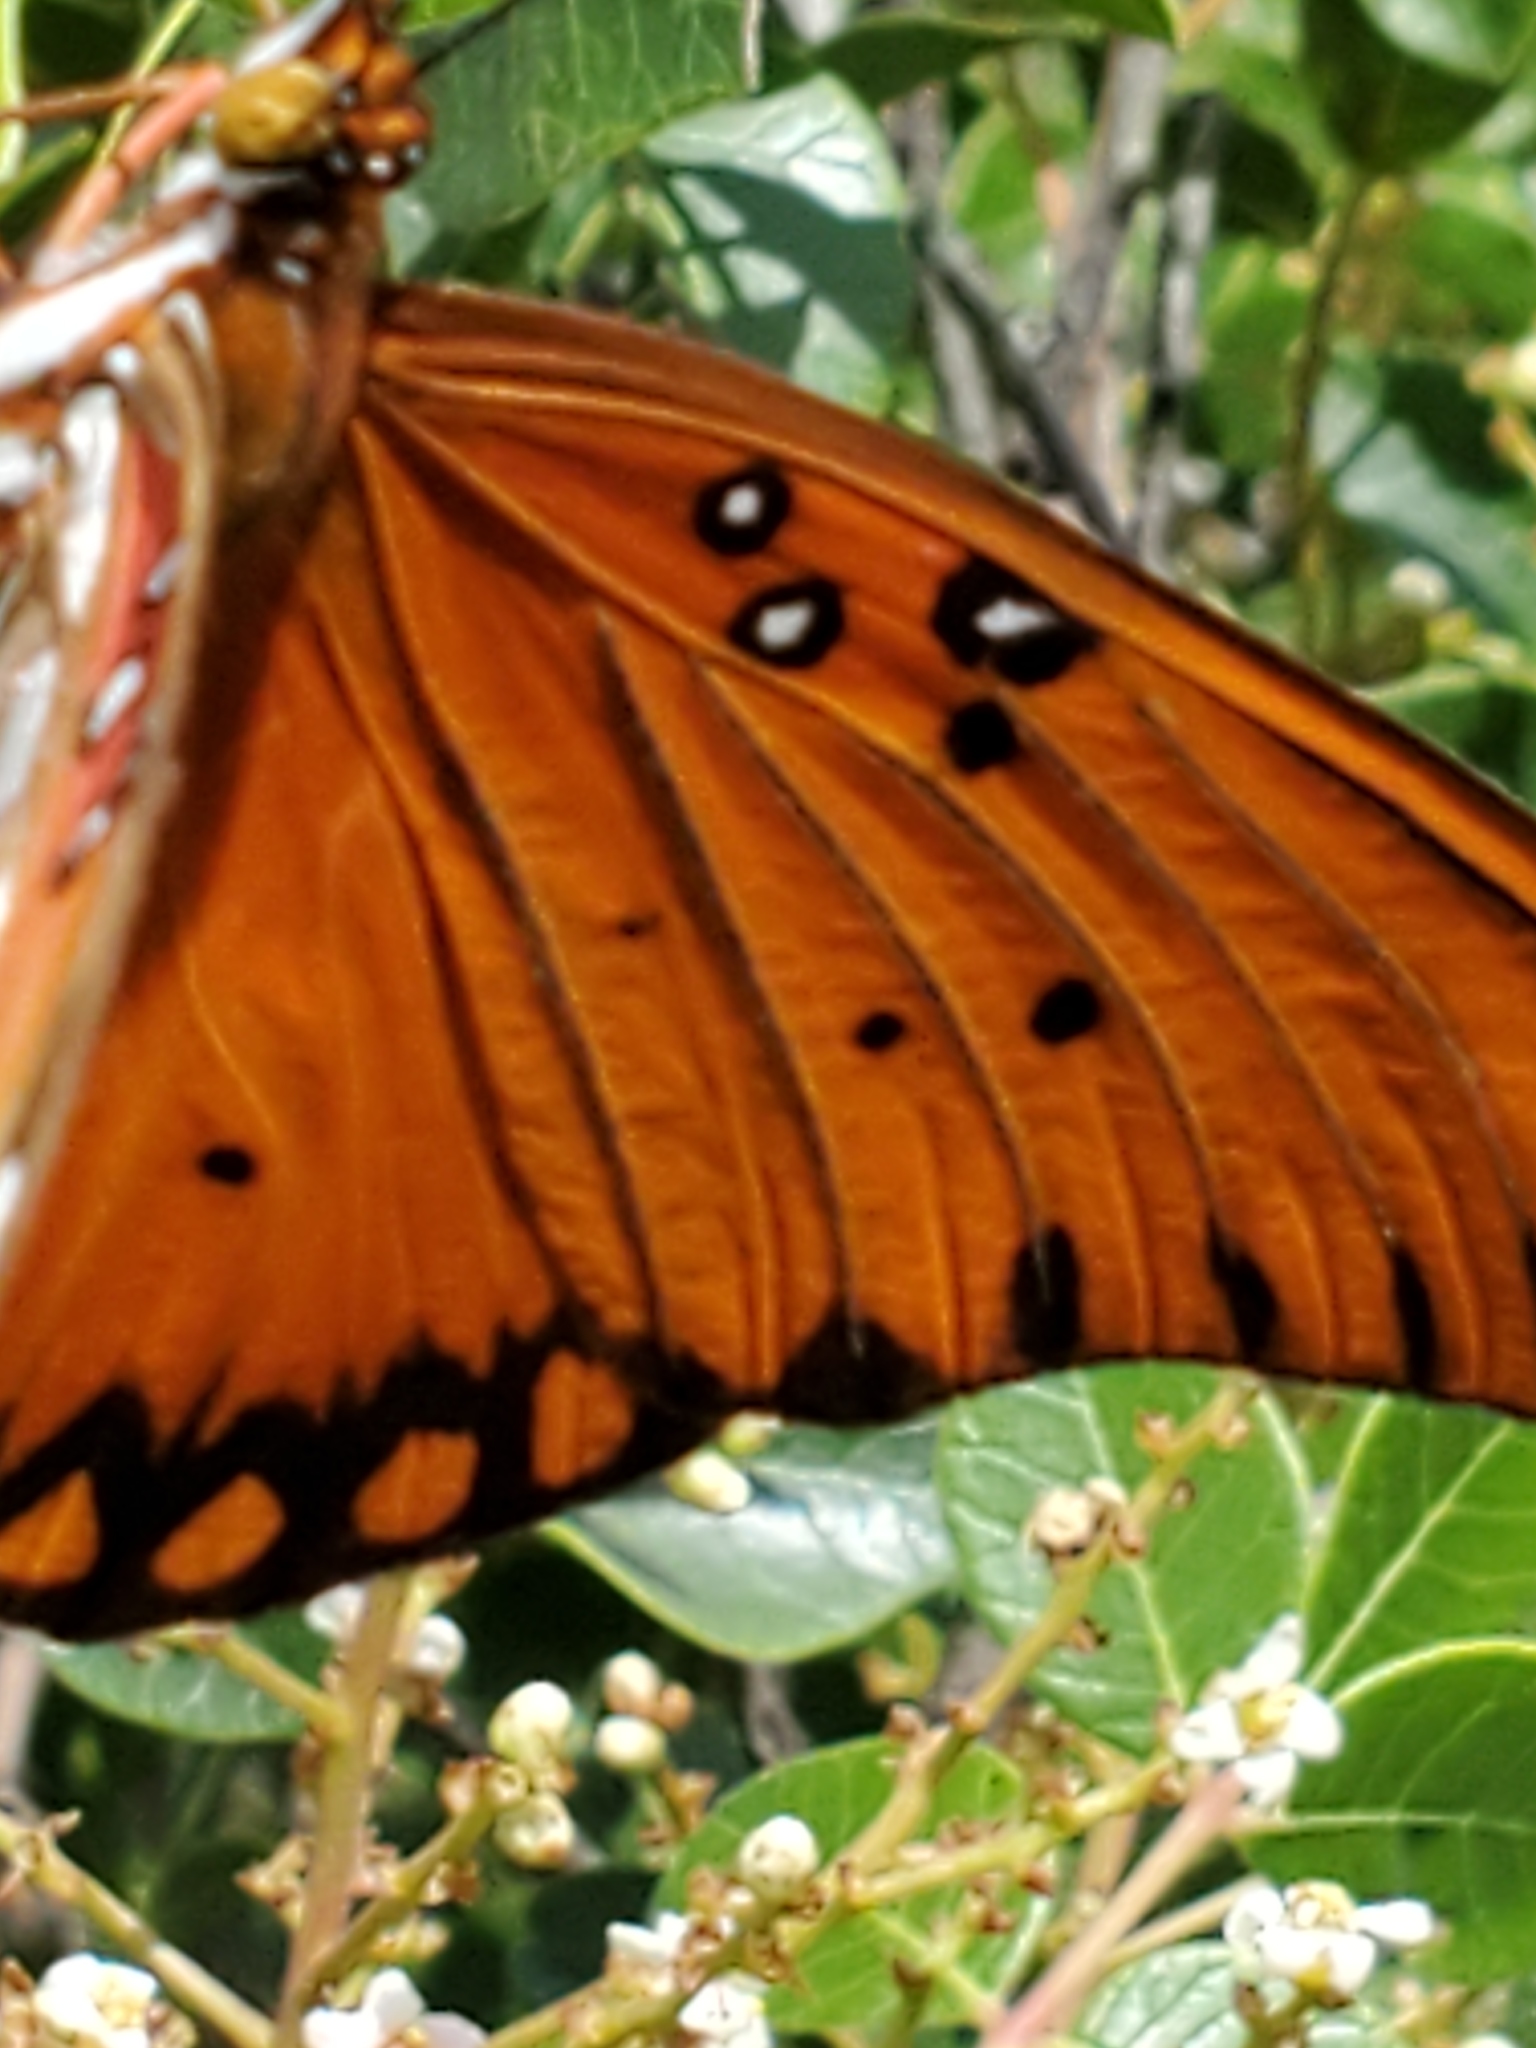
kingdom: Animalia
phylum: Arthropoda
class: Insecta
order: Lepidoptera
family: Nymphalidae
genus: Dione
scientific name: Dione vanillae
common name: Gulf fritillary
